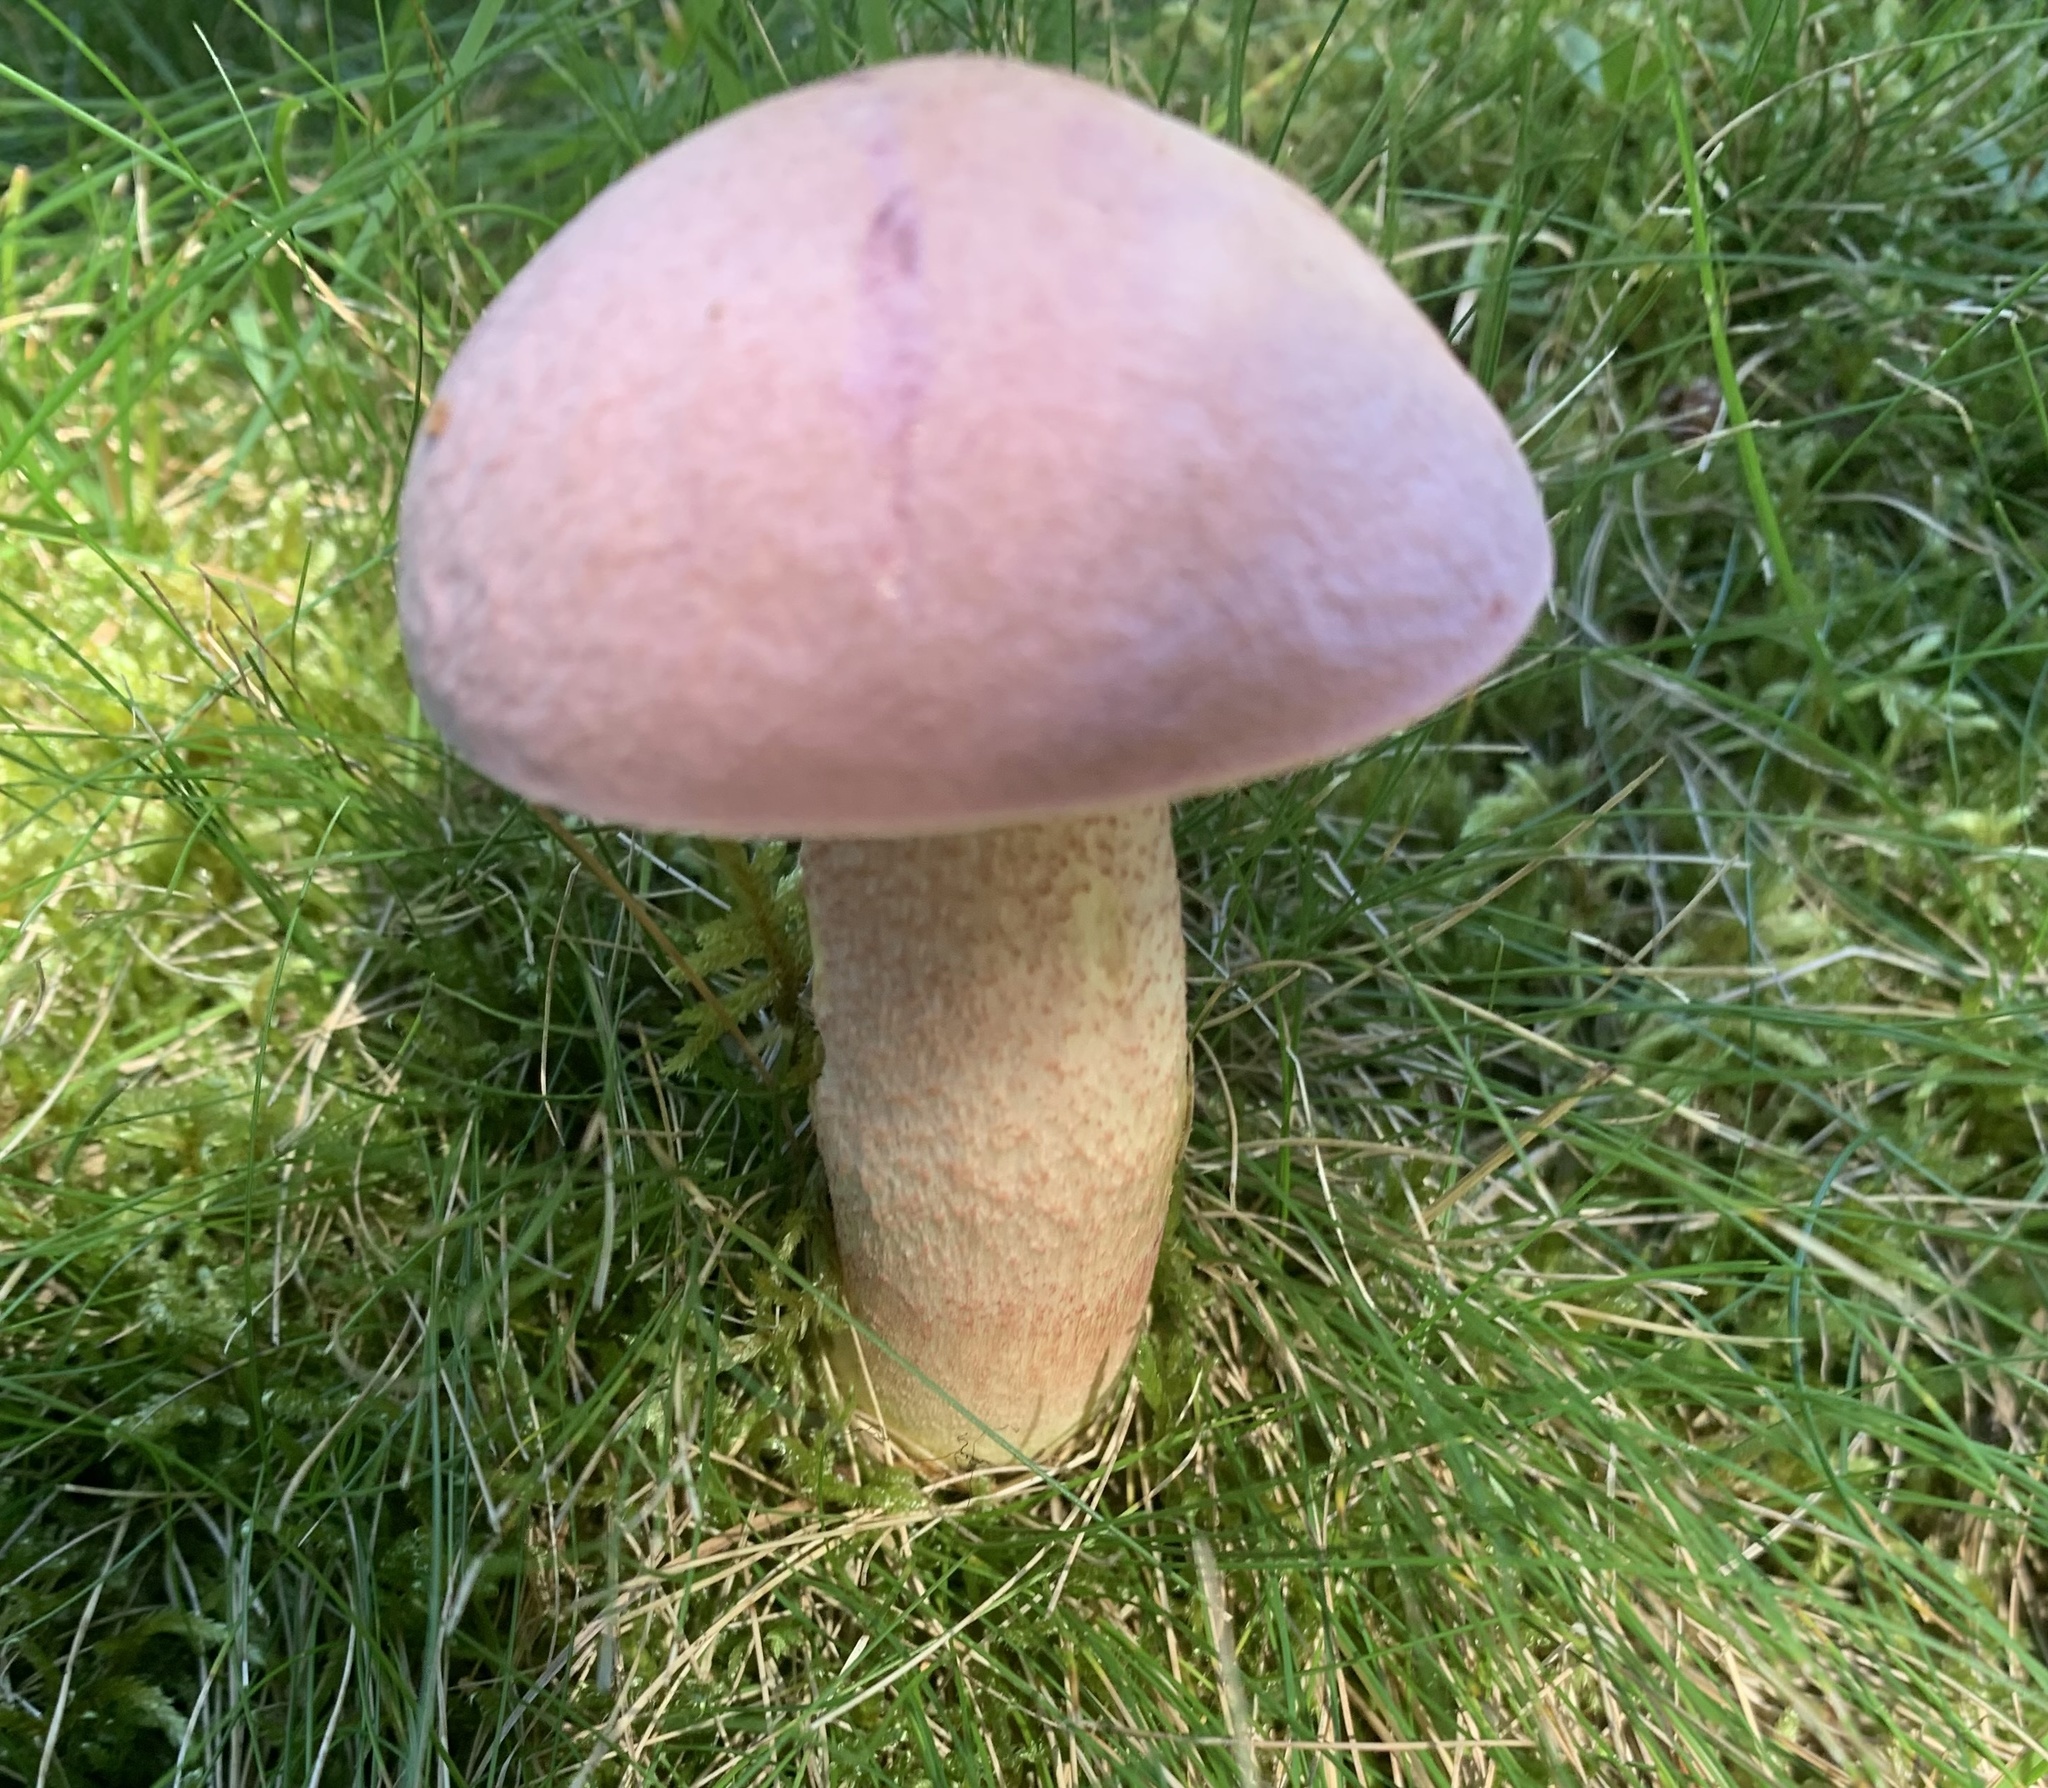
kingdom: Fungi
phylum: Basidiomycota
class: Agaricomycetes
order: Boletales
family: Boletaceae
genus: Harrya
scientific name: Harrya chromipes
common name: Chrome-footed bolete
